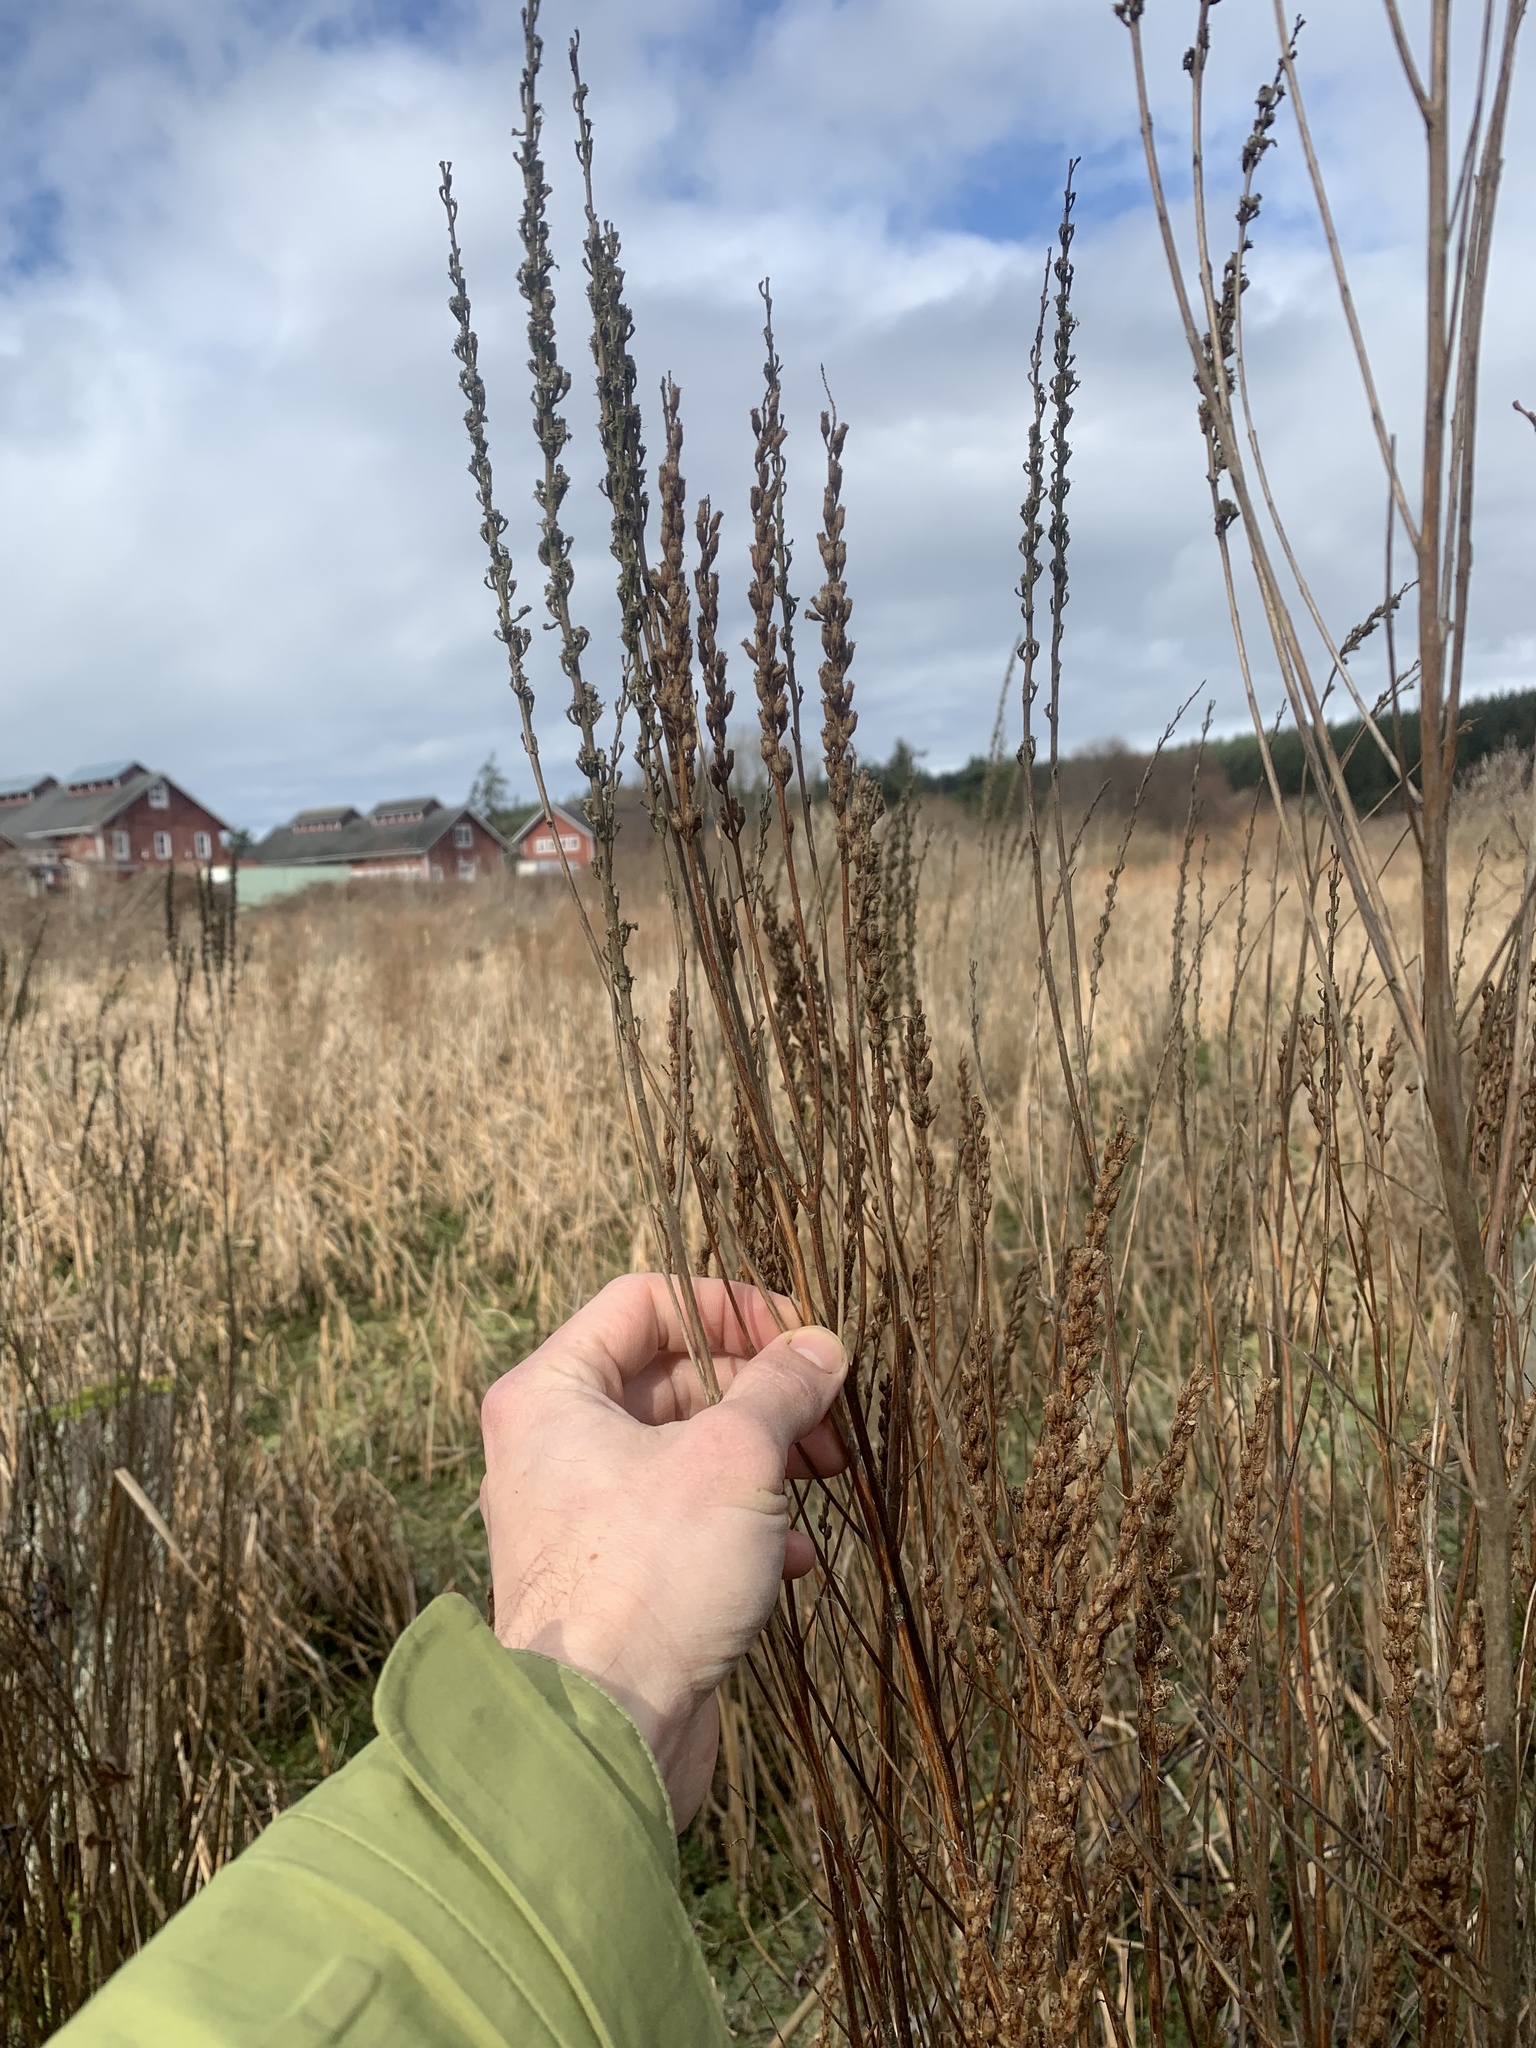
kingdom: Plantae
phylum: Tracheophyta
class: Magnoliopsida
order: Myrtales
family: Lythraceae
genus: Lythrum
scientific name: Lythrum salicaria
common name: Purple loosestrife
